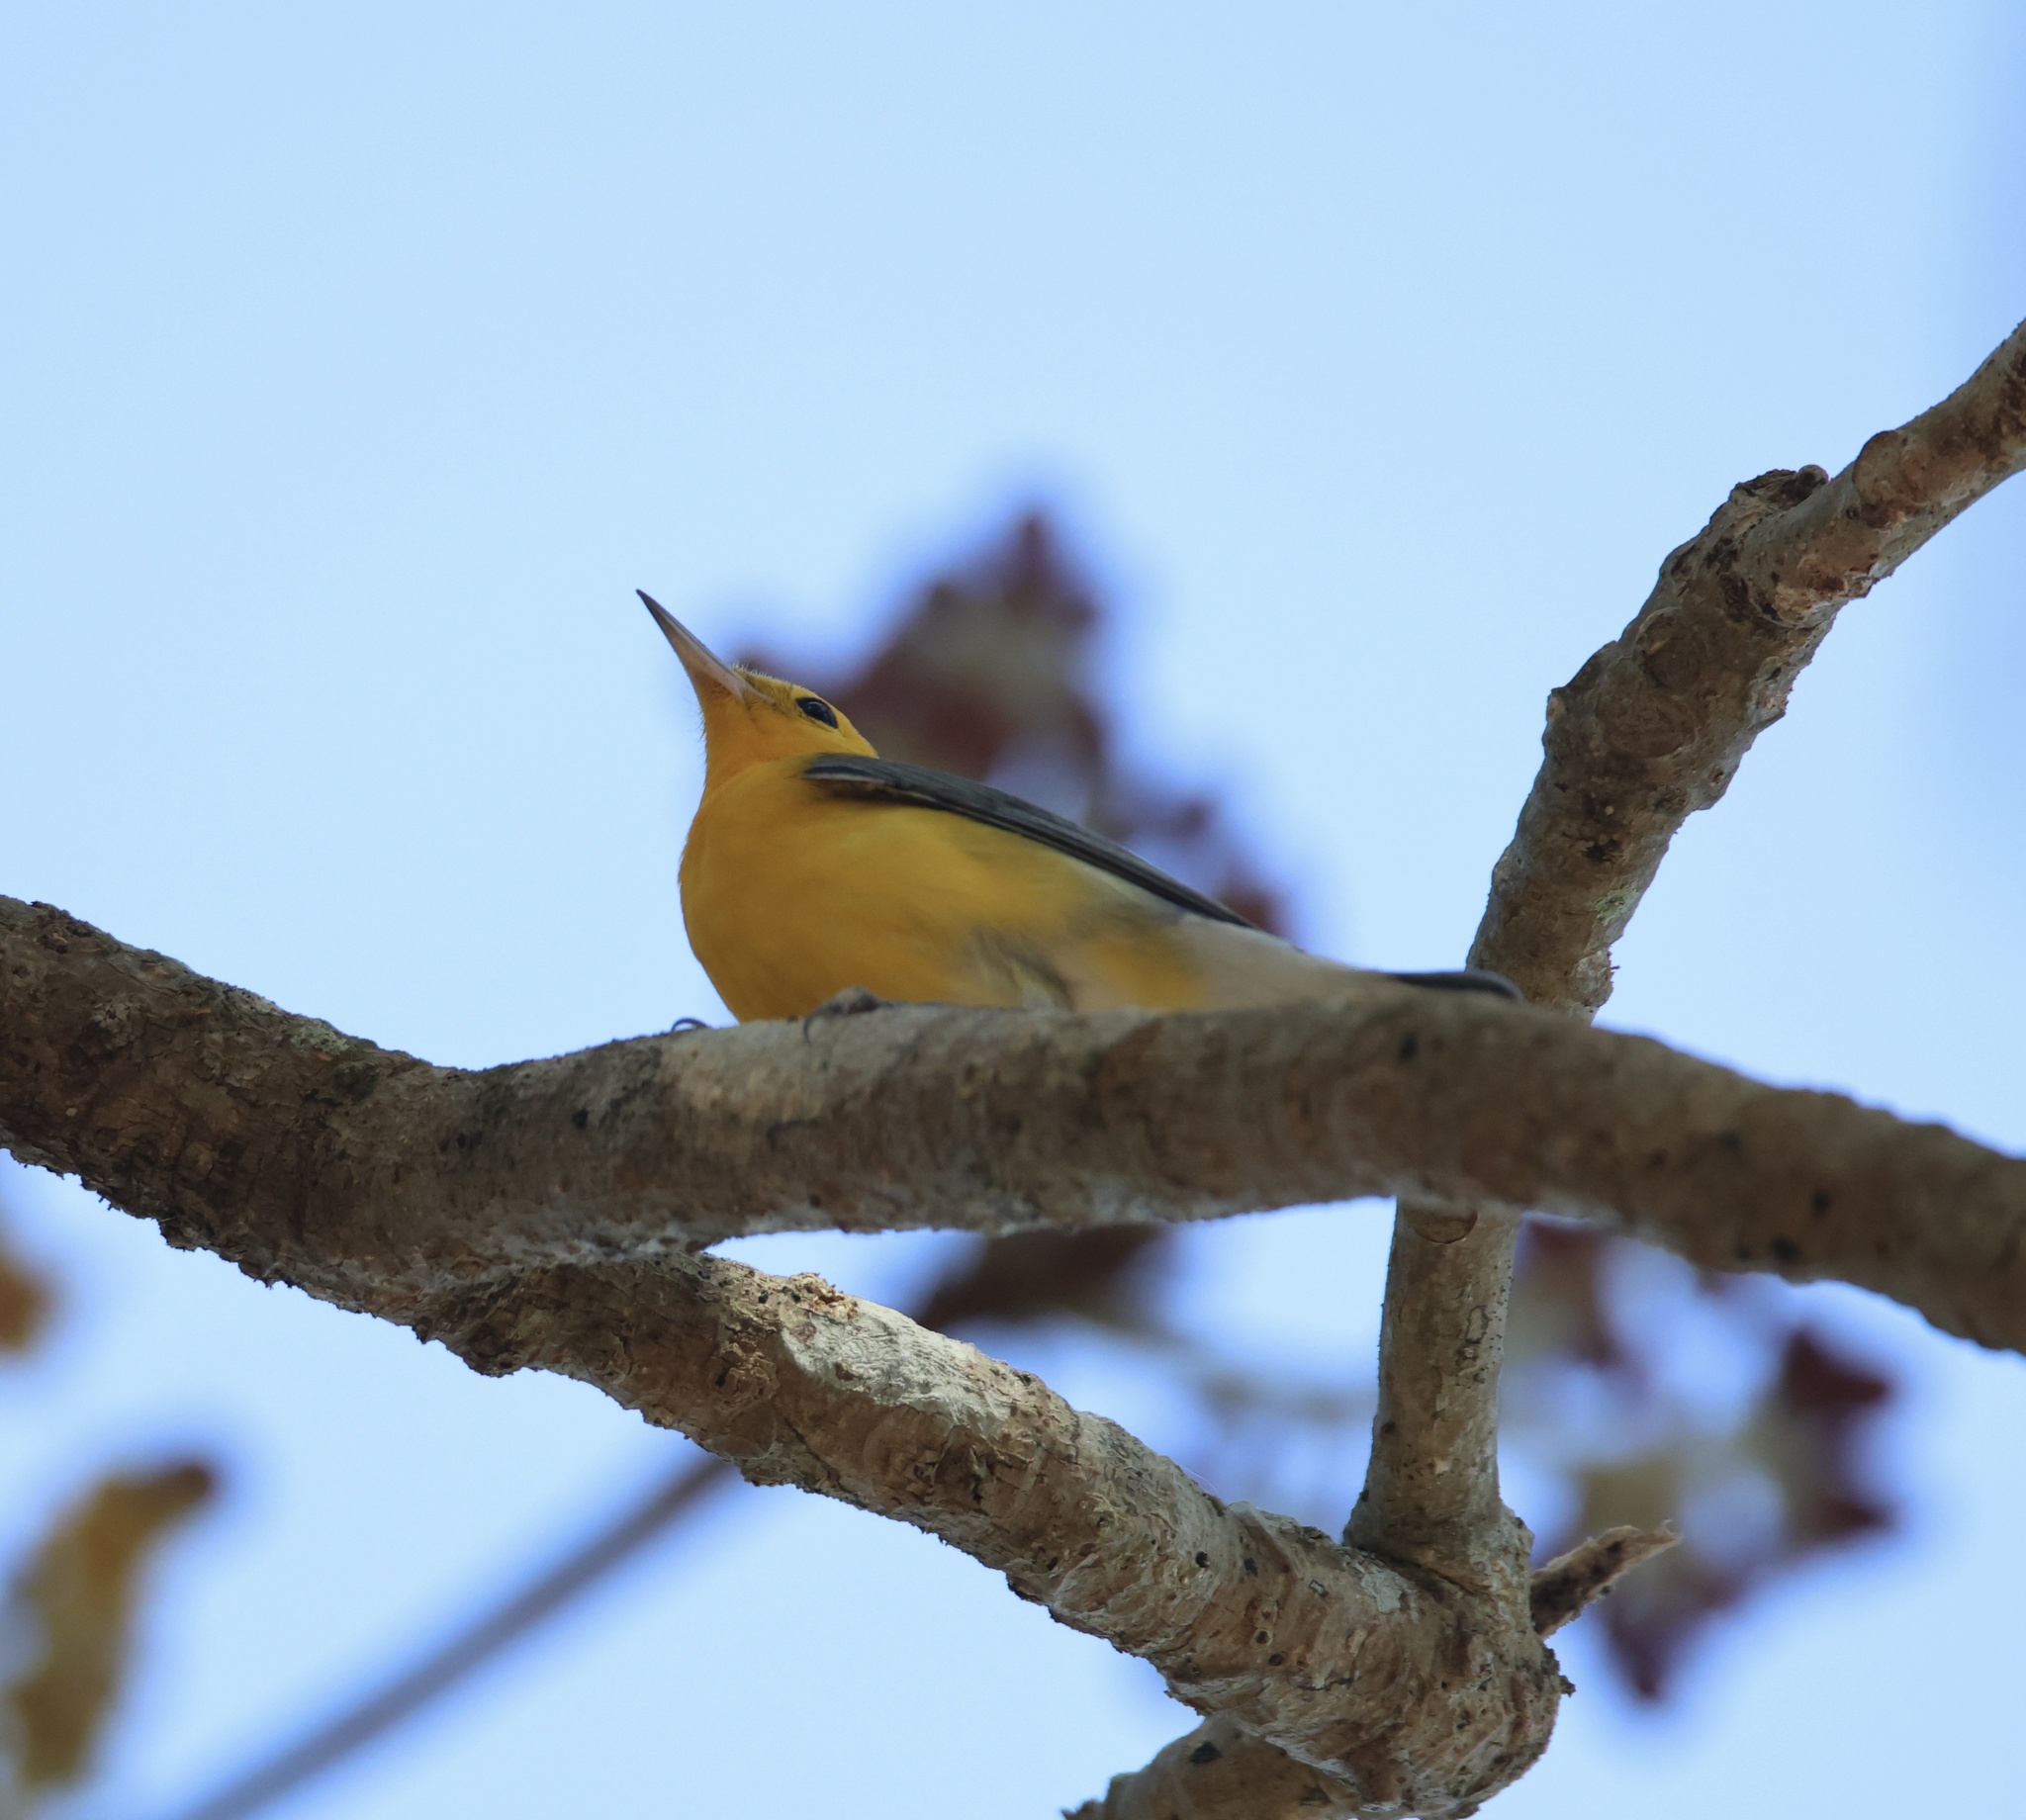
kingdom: Animalia
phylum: Chordata
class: Aves
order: Passeriformes
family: Parulidae
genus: Protonotaria
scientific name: Protonotaria citrea
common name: Prothonotary warbler
